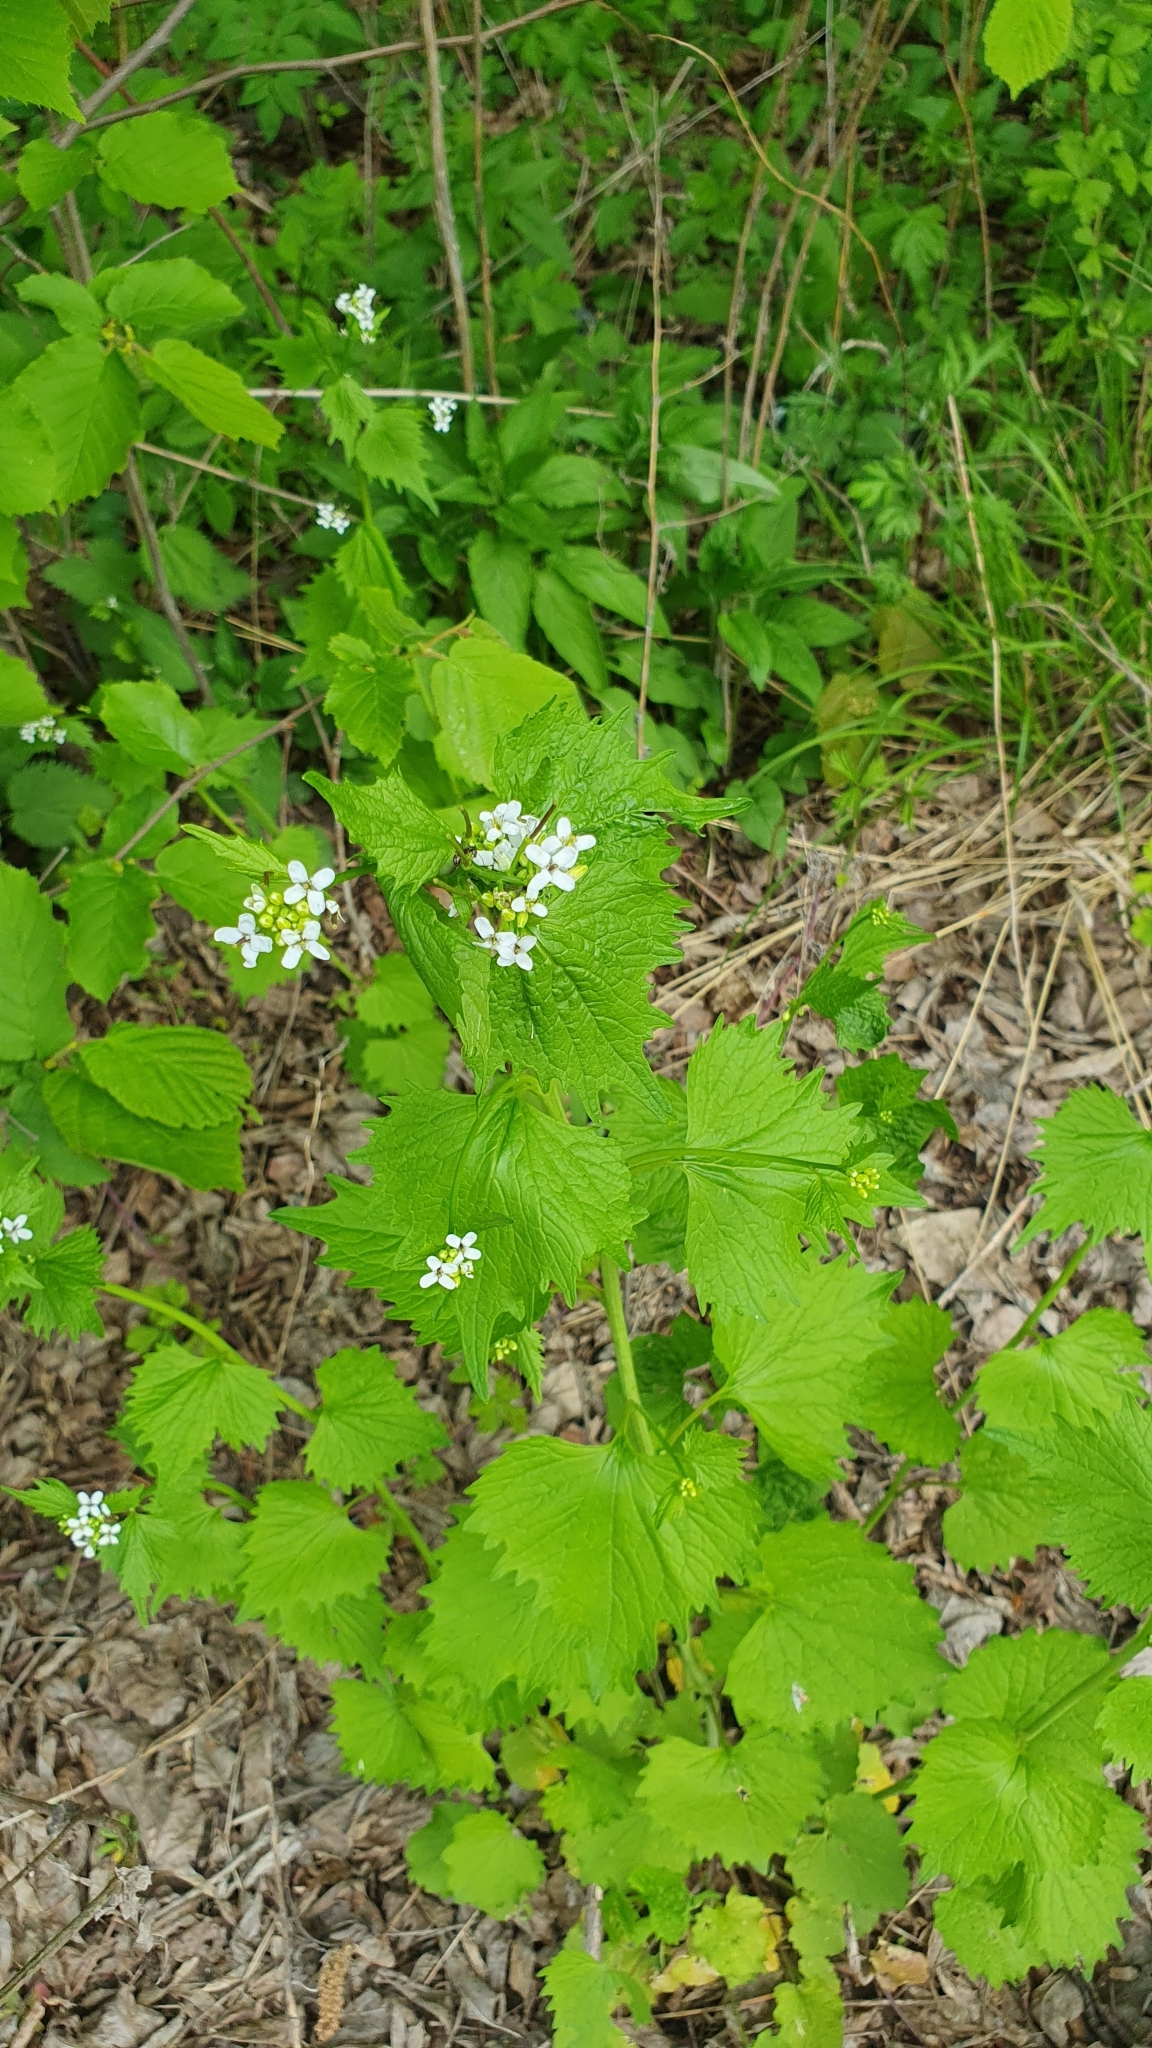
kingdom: Plantae
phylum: Tracheophyta
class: Magnoliopsida
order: Brassicales
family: Brassicaceae
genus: Alliaria
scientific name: Alliaria petiolata
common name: Garlic mustard
